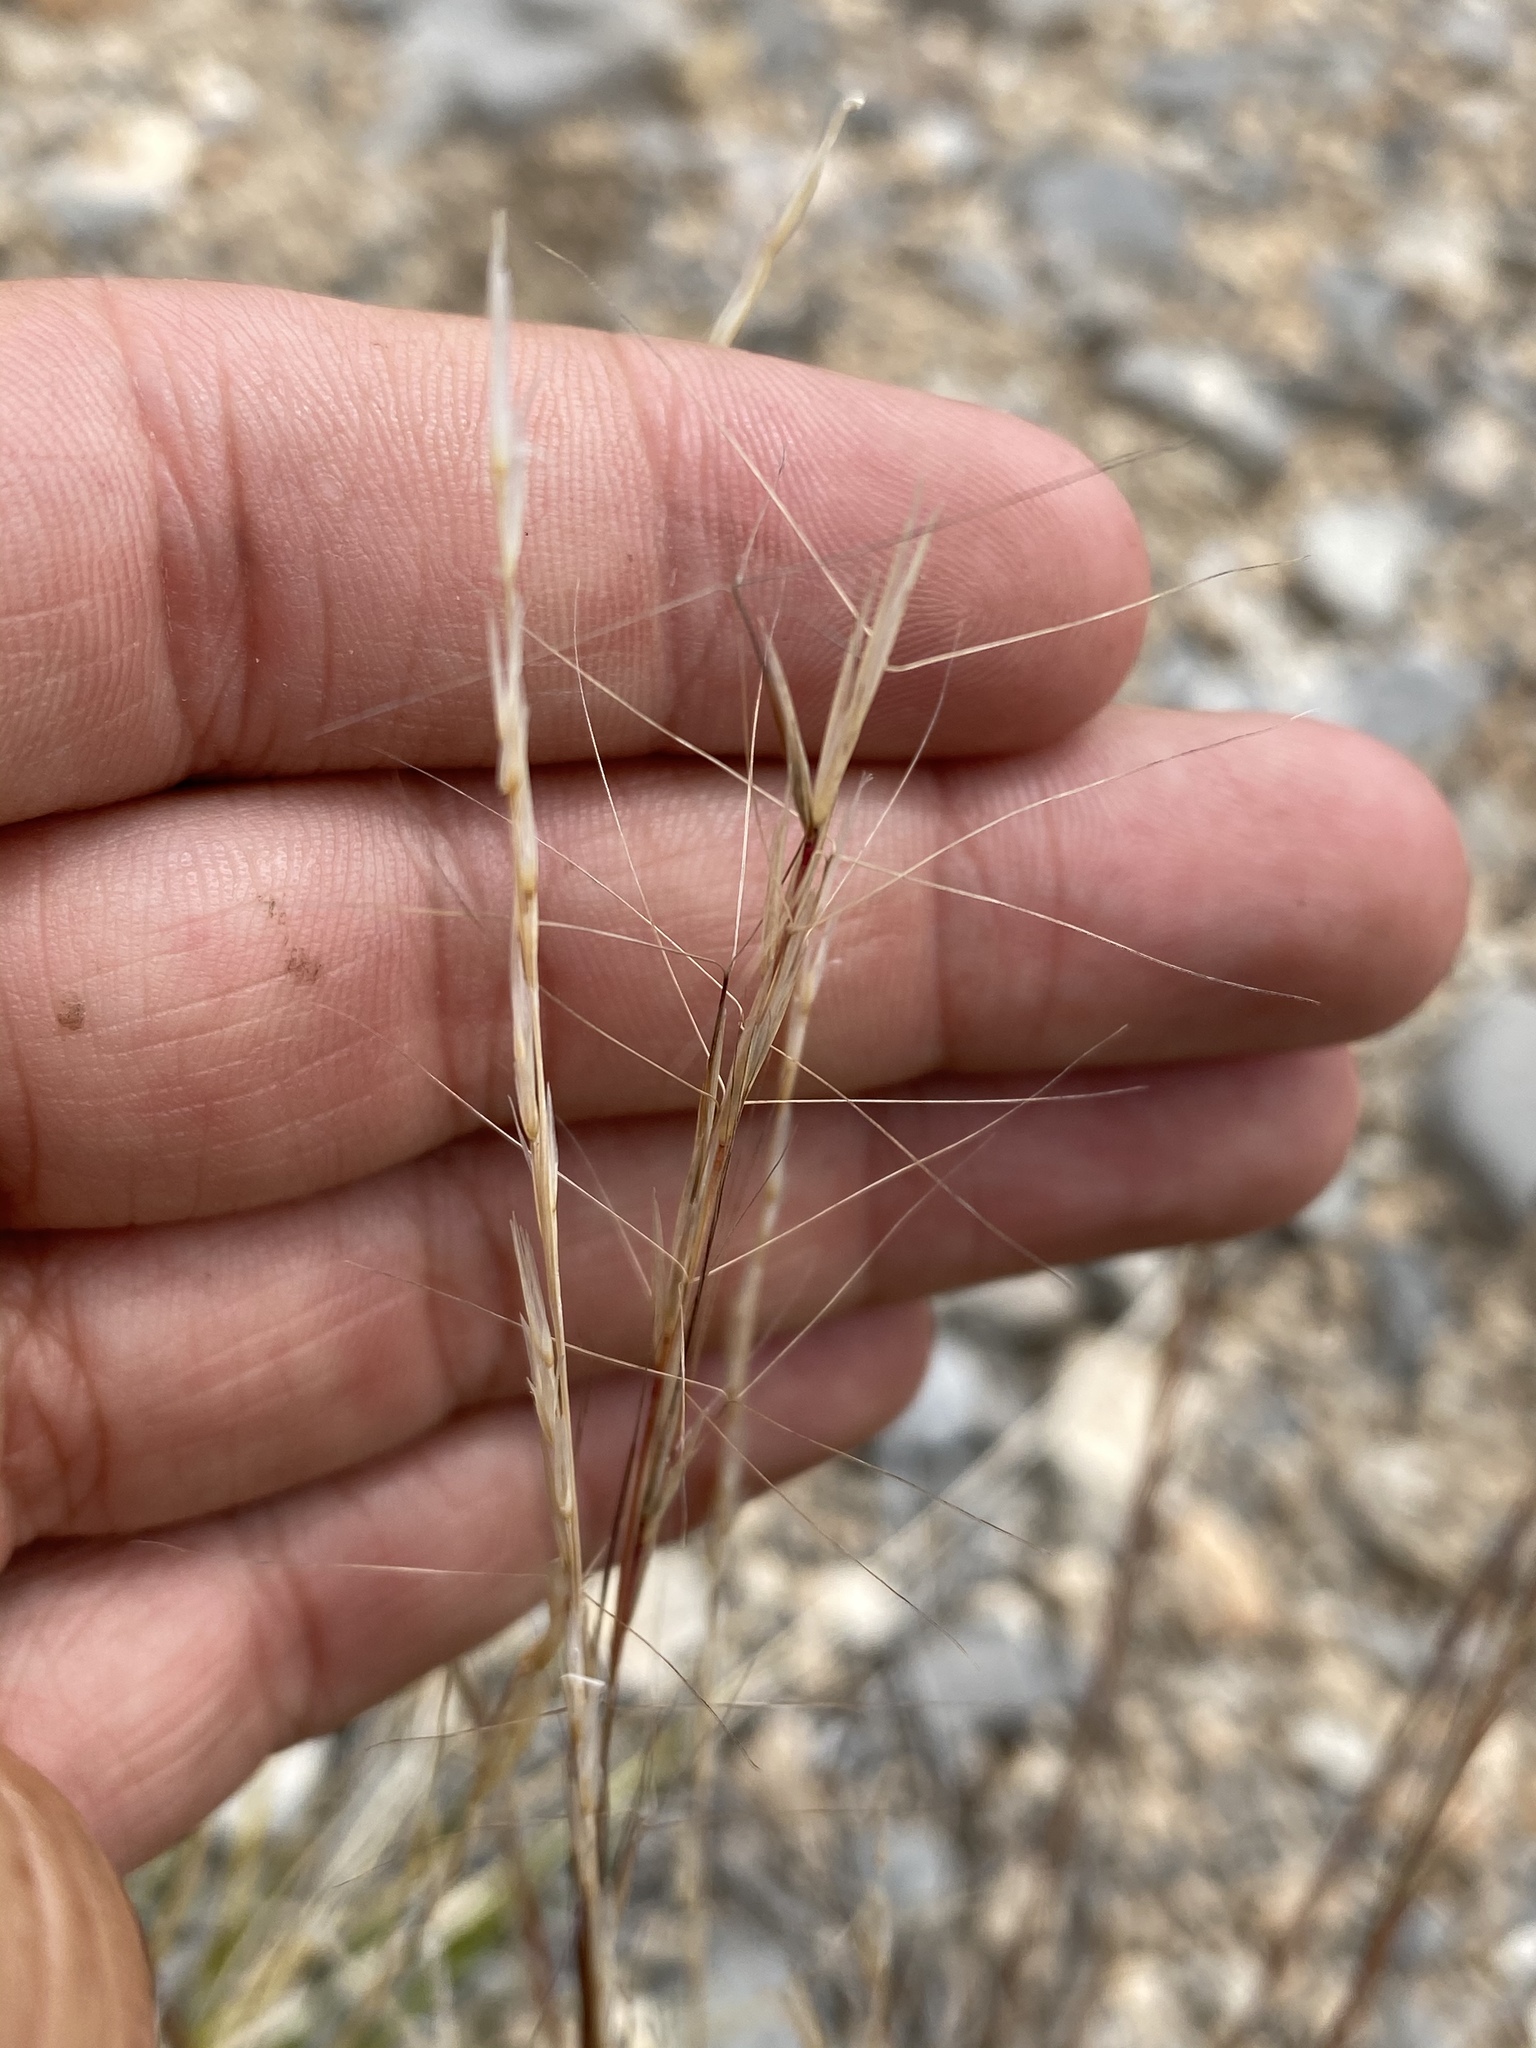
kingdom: Plantae
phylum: Tracheophyta
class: Liliopsida
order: Poales
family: Poaceae
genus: Aristida
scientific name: Aristida purpurea
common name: Purple threeawn
